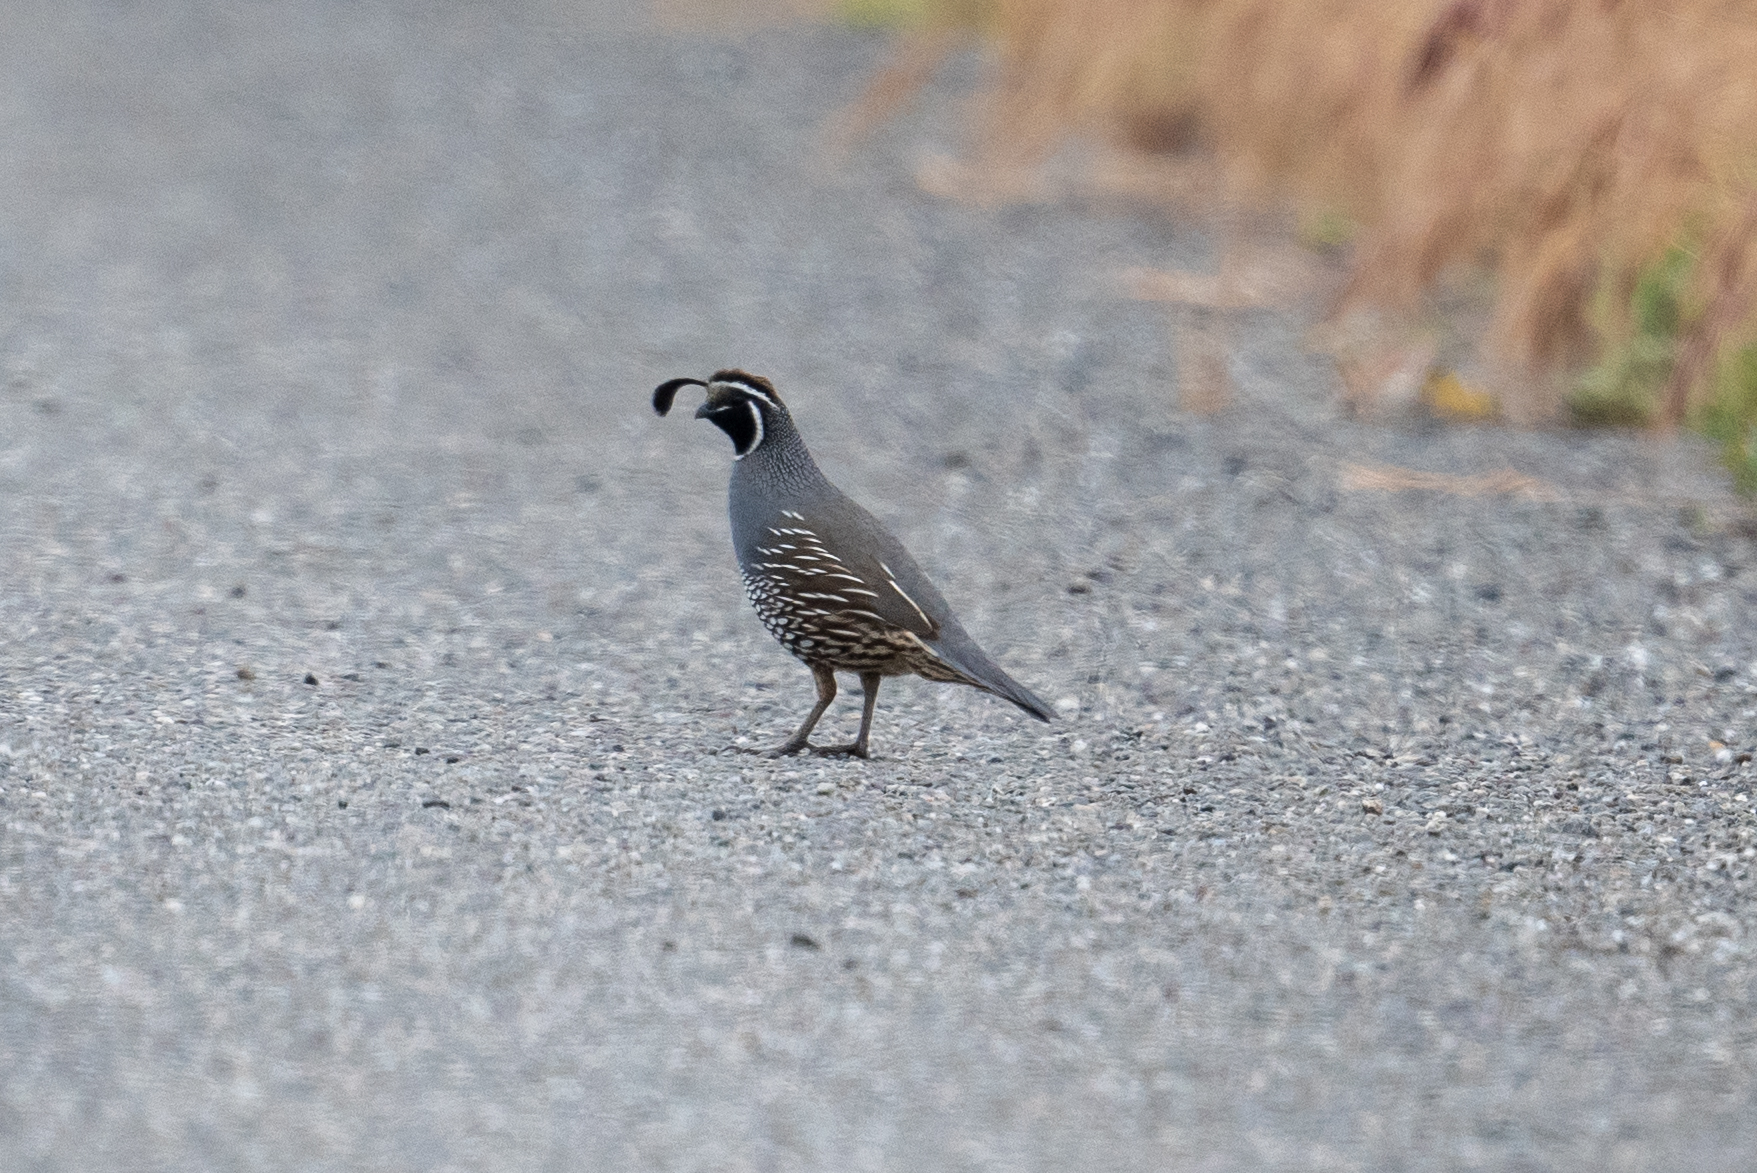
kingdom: Animalia
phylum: Chordata
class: Aves
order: Galliformes
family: Odontophoridae
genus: Callipepla
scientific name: Callipepla californica
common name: California quail
